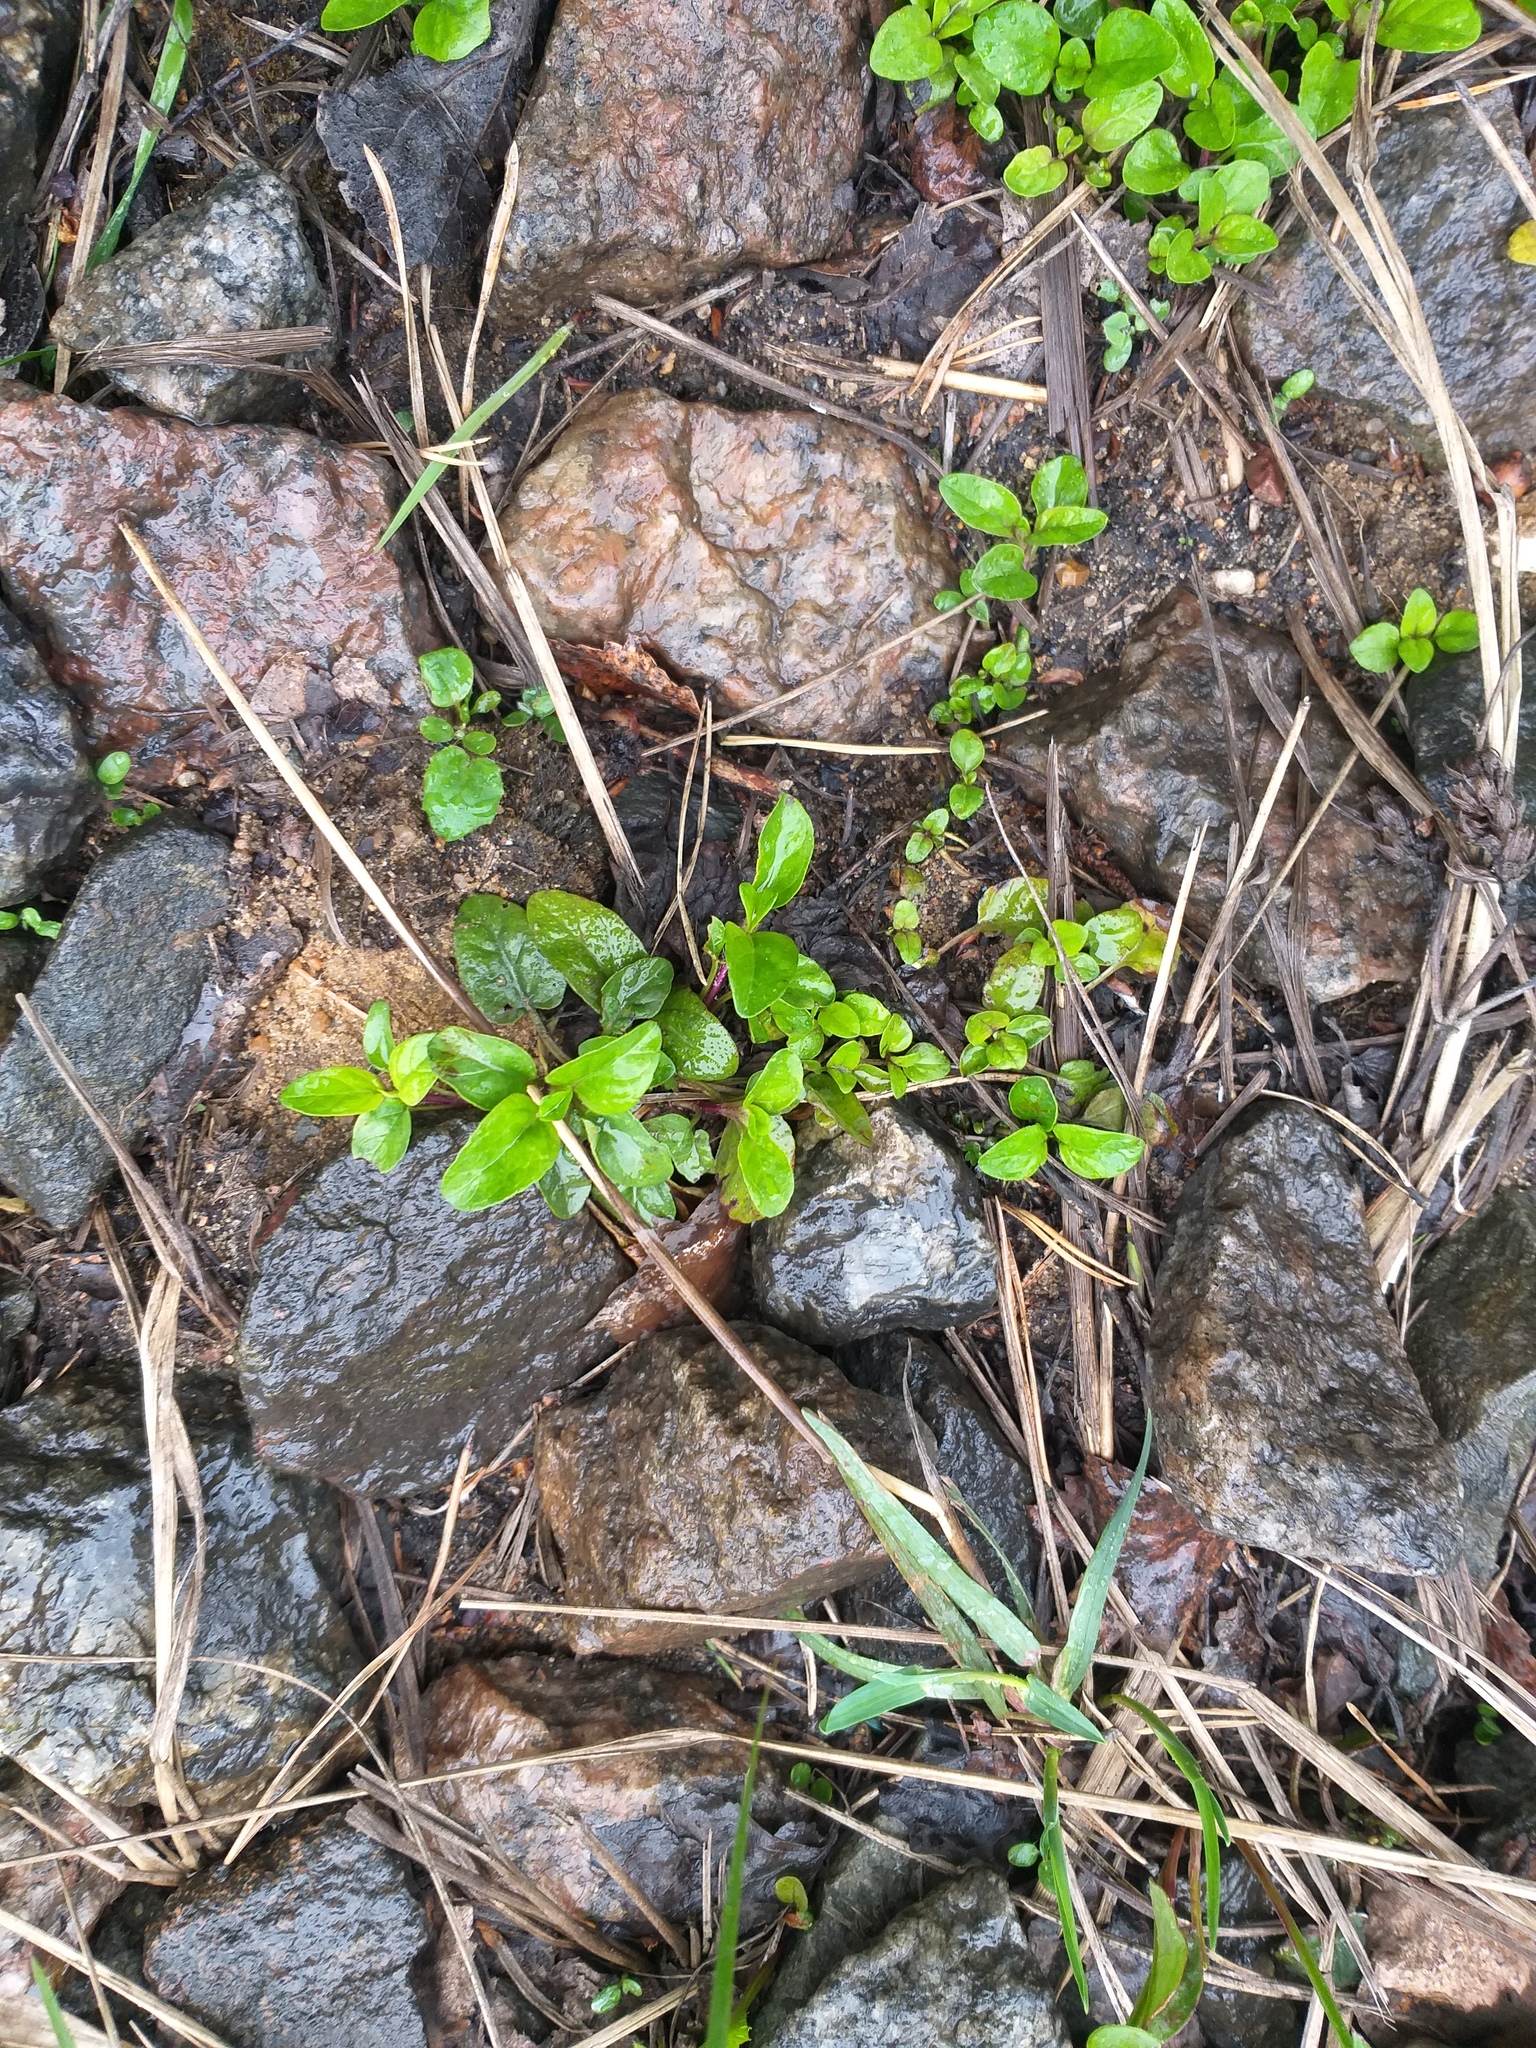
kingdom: Plantae
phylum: Tracheophyta
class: Magnoliopsida
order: Lamiales
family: Lamiaceae
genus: Prunella
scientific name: Prunella vulgaris
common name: Heal-all
